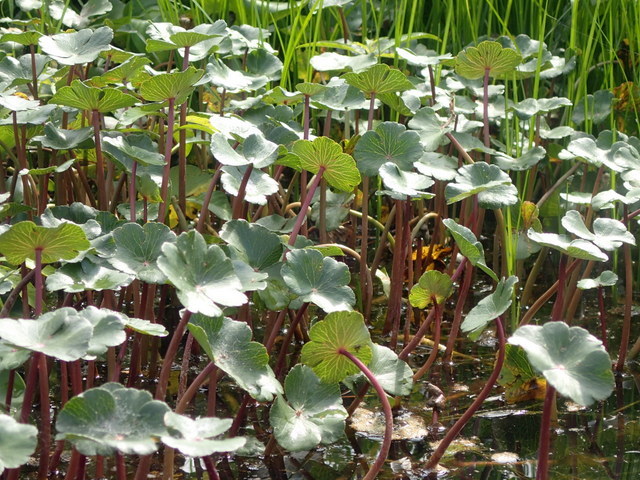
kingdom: Plantae
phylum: Tracheophyta
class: Magnoliopsida
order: Apiales
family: Araliaceae
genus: Hydrocotyle
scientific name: Hydrocotyle ranunculoides
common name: Floating pennywort
